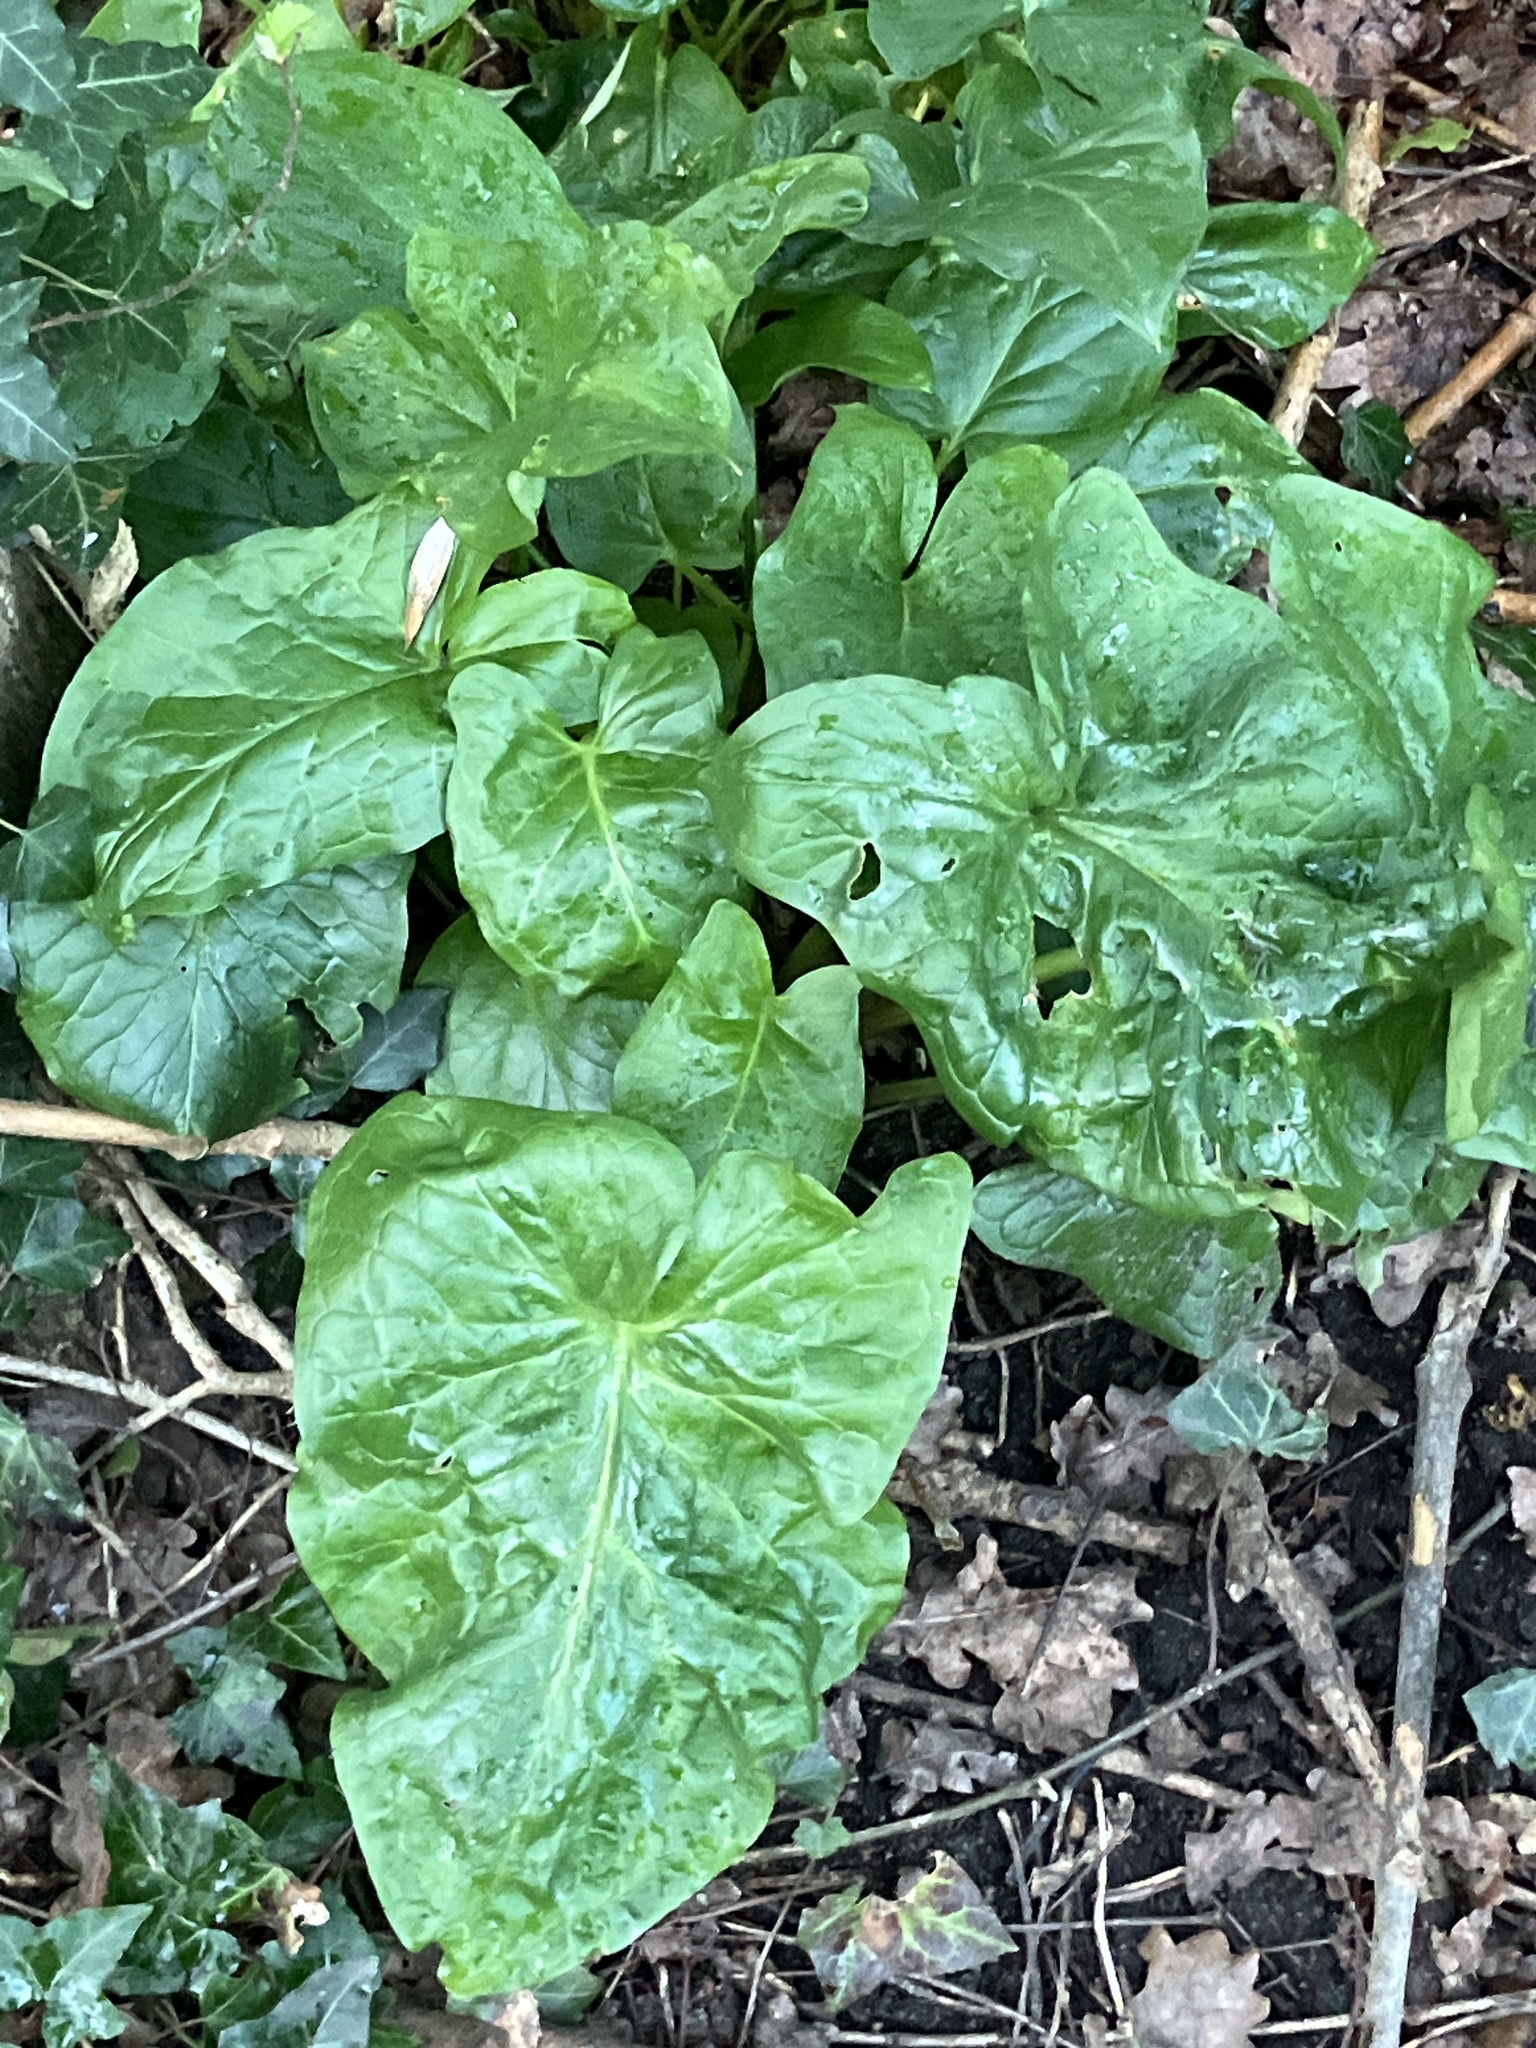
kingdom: Plantae
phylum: Tracheophyta
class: Liliopsida
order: Alismatales
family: Araceae
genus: Arum
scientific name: Arum maculatum
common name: Lords-and-ladies
